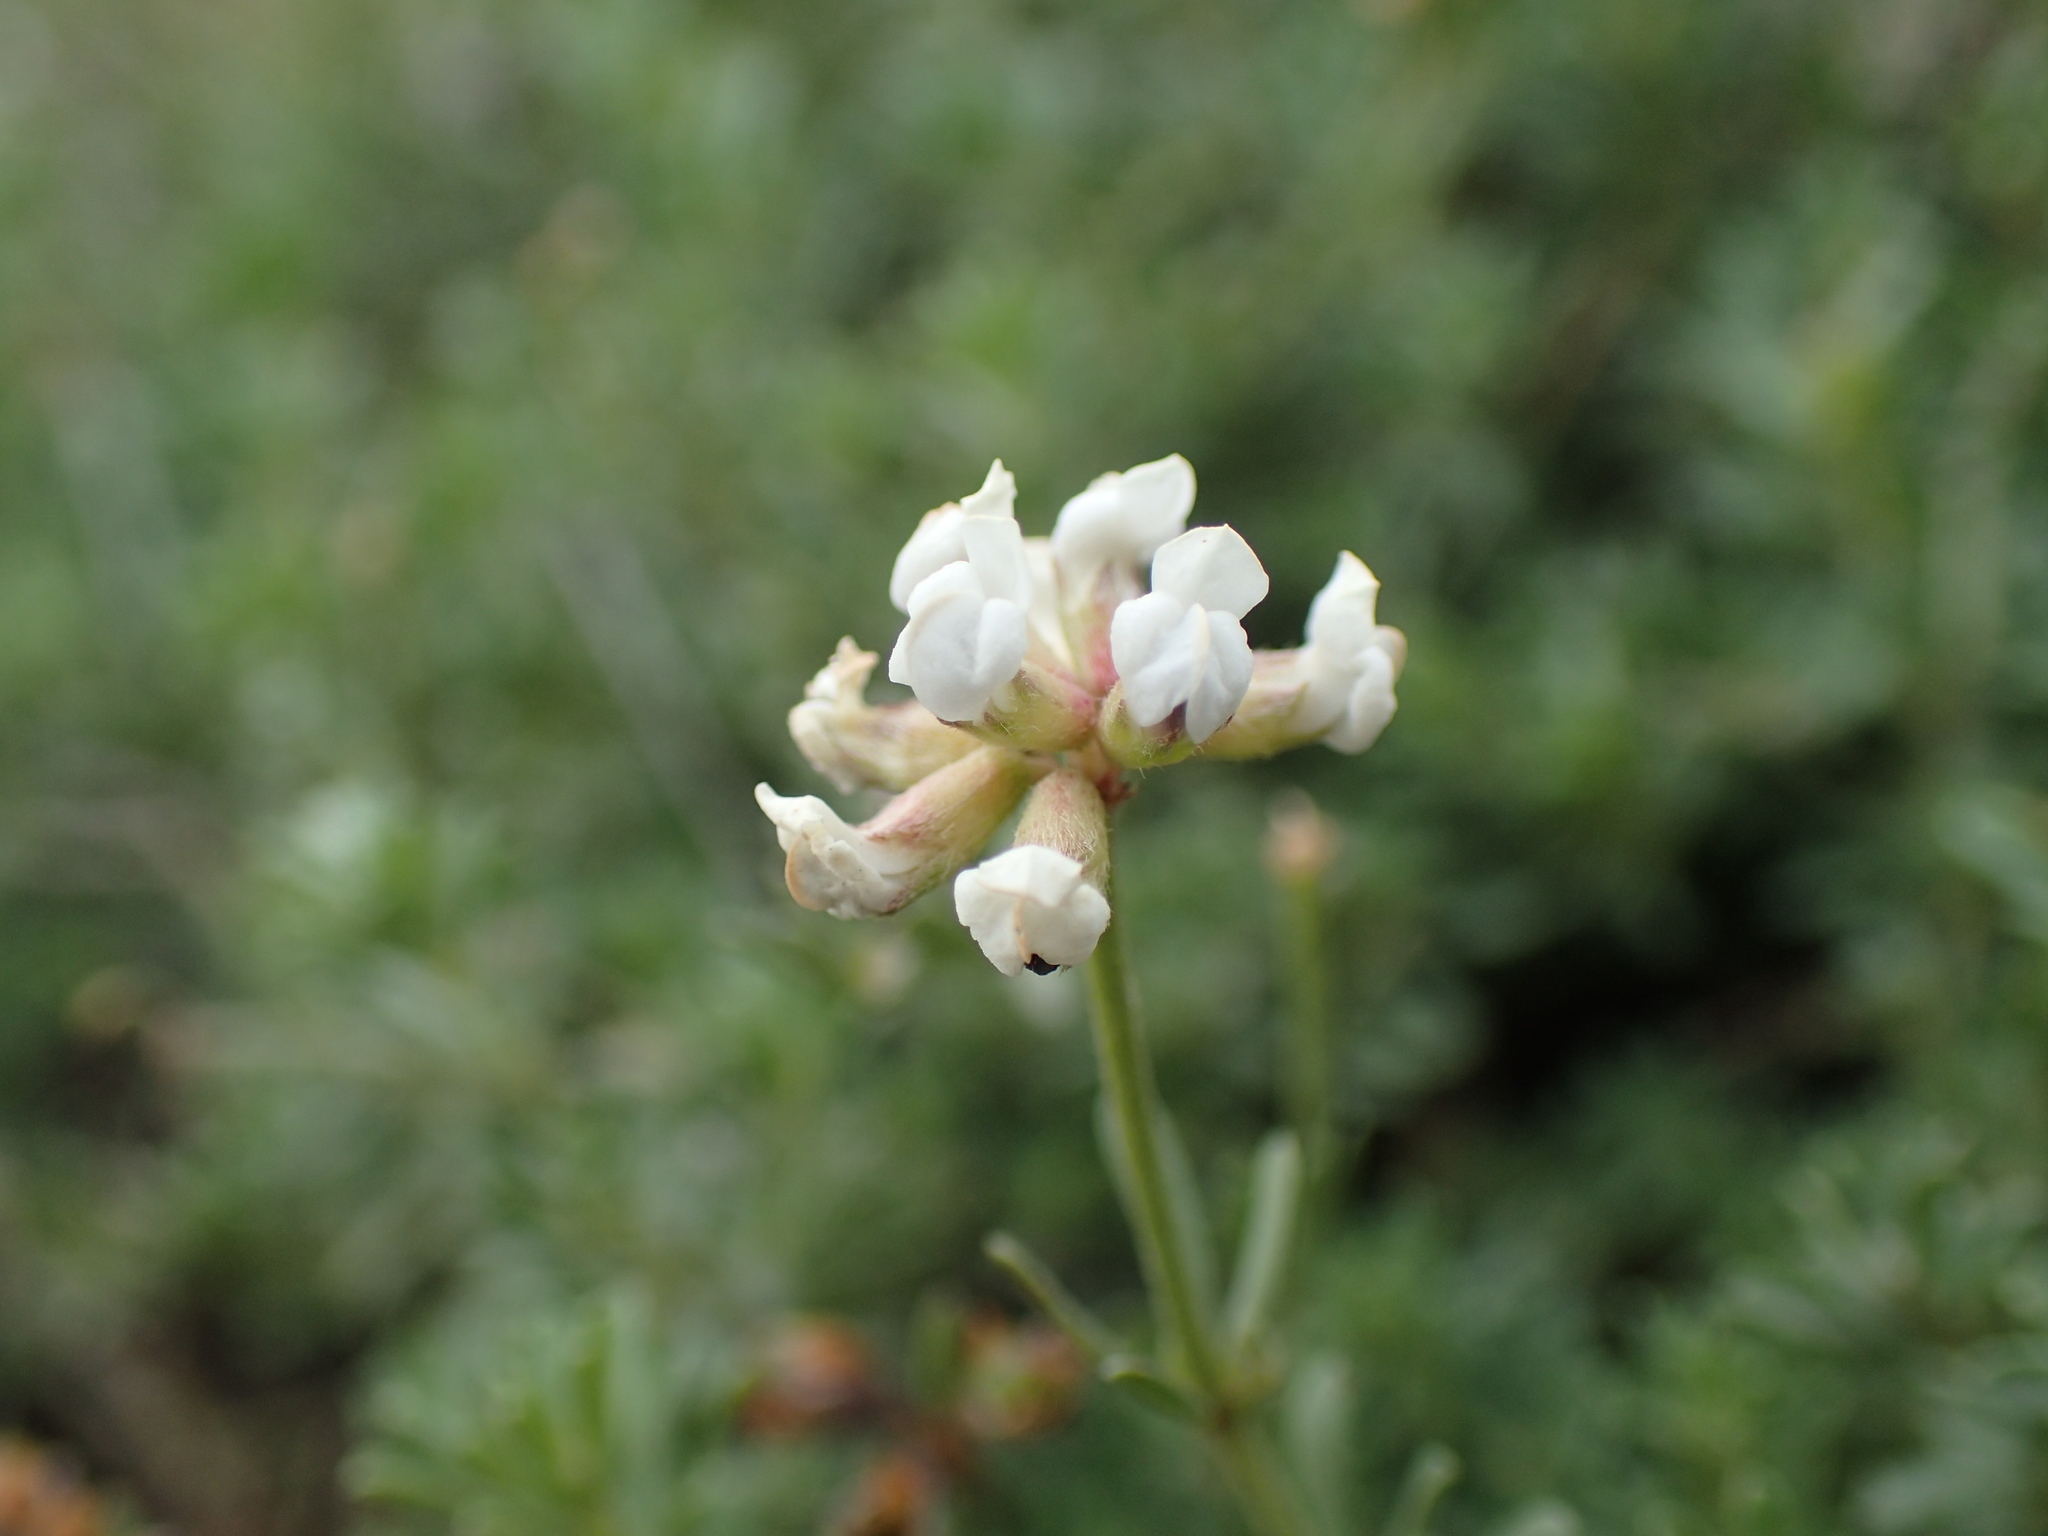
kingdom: Plantae
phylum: Tracheophyta
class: Magnoliopsida
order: Fabales
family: Fabaceae
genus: Lotus
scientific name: Lotus dorycnium
